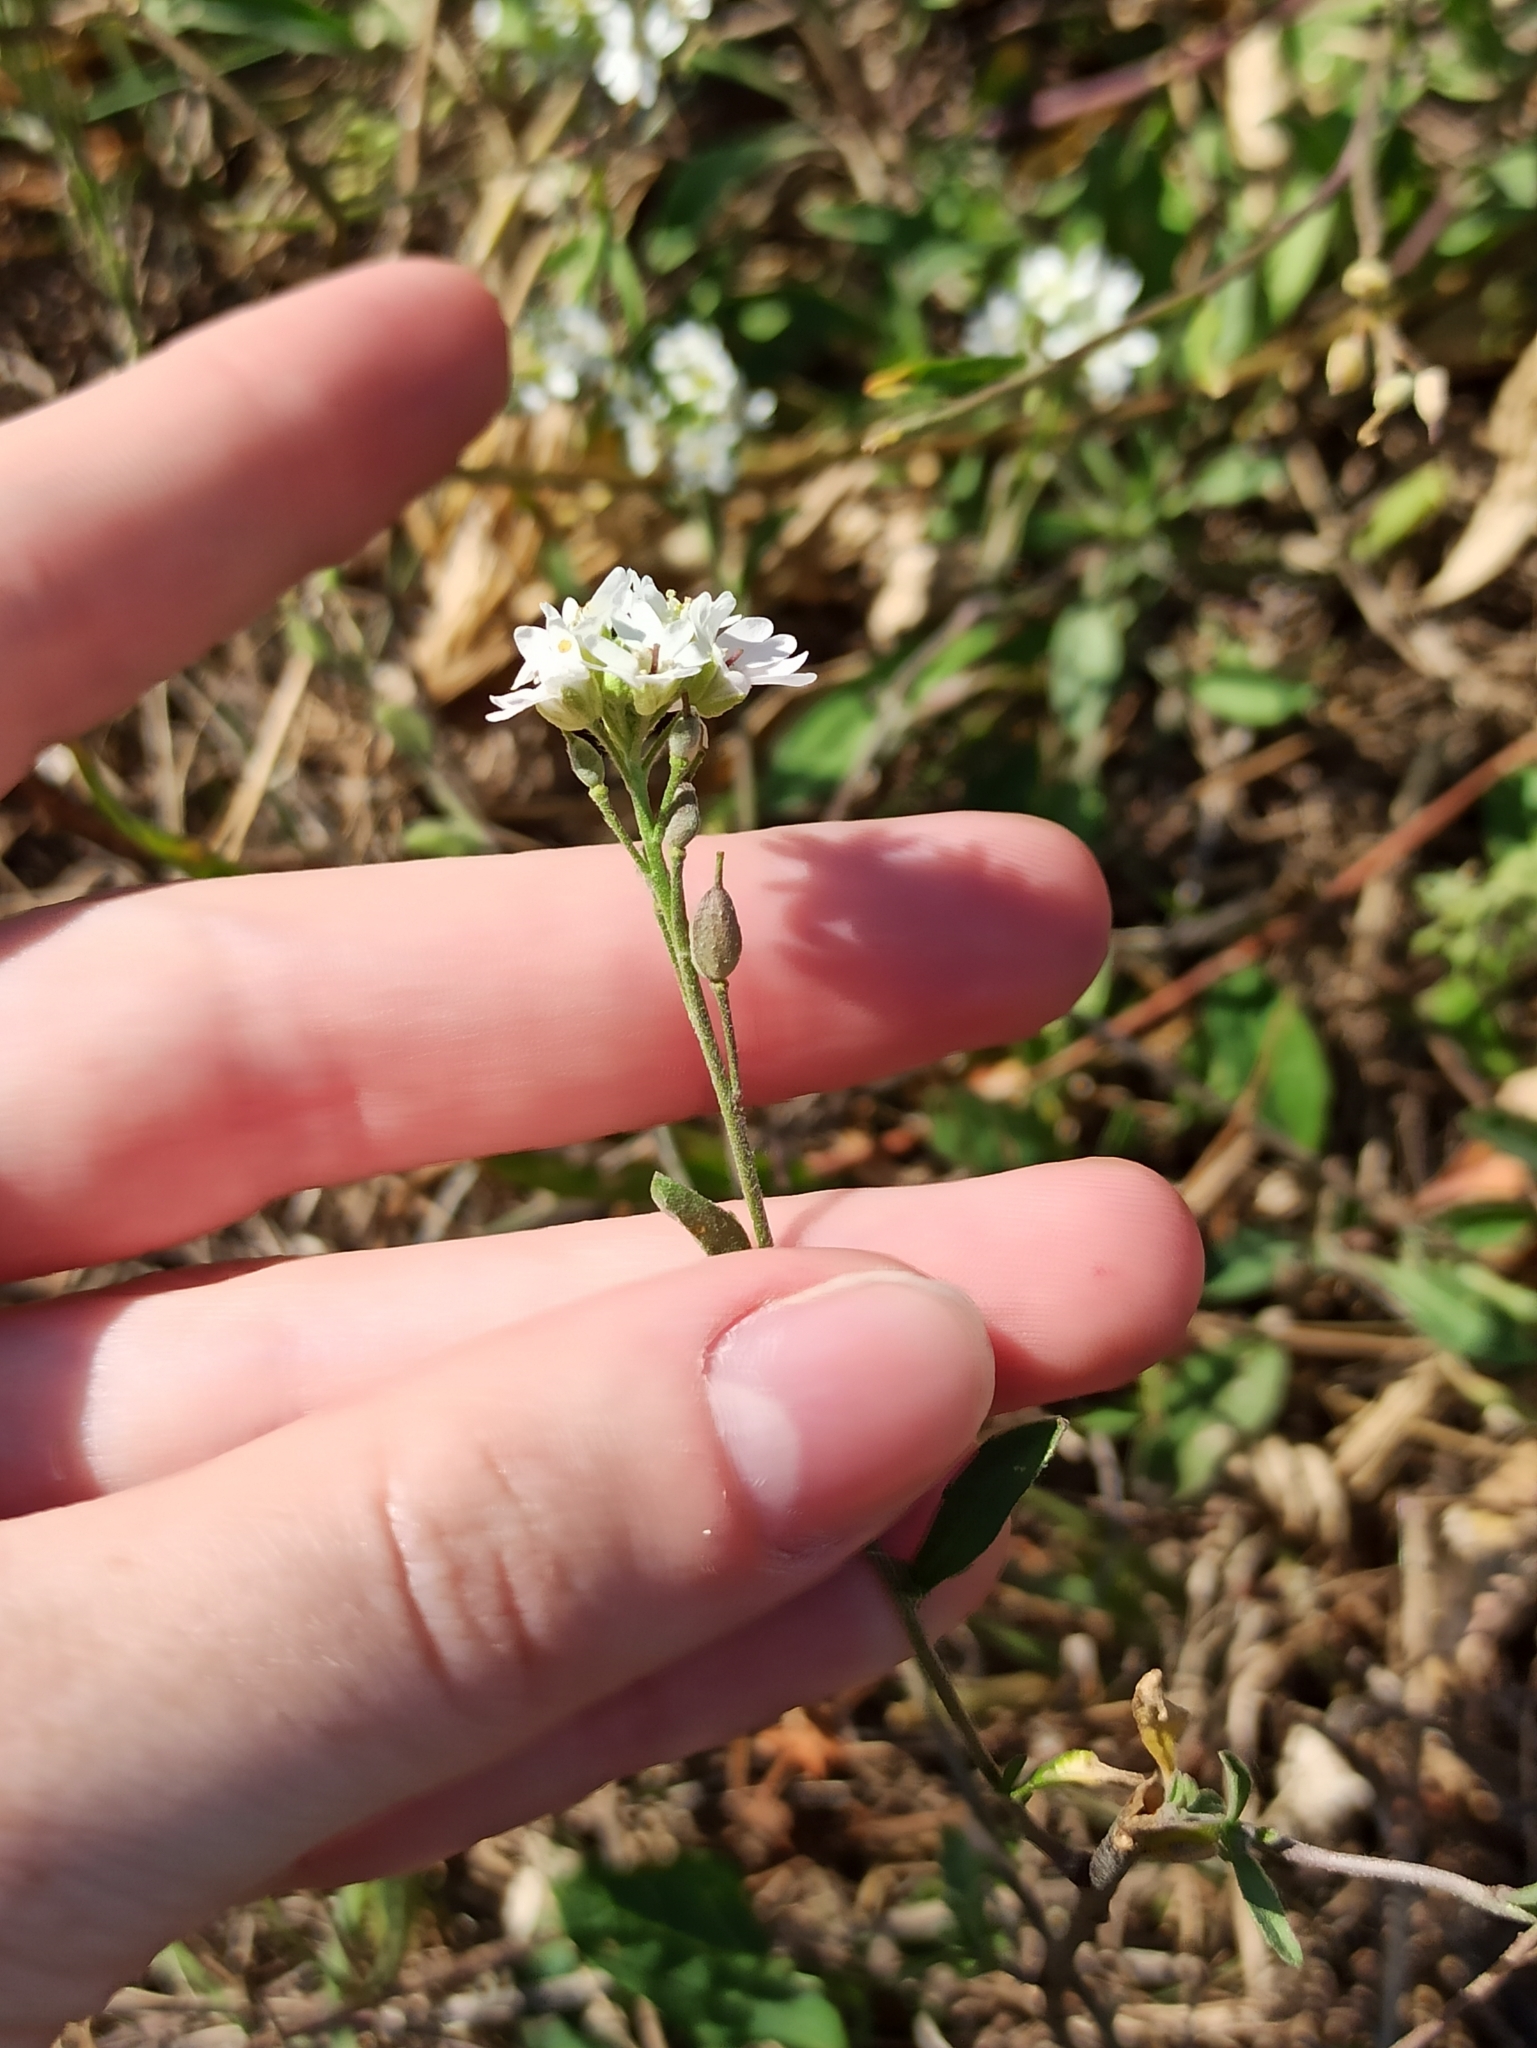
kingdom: Plantae
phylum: Tracheophyta
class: Magnoliopsida
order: Brassicales
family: Brassicaceae
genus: Berteroa
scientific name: Berteroa incana
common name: Hoary alison
